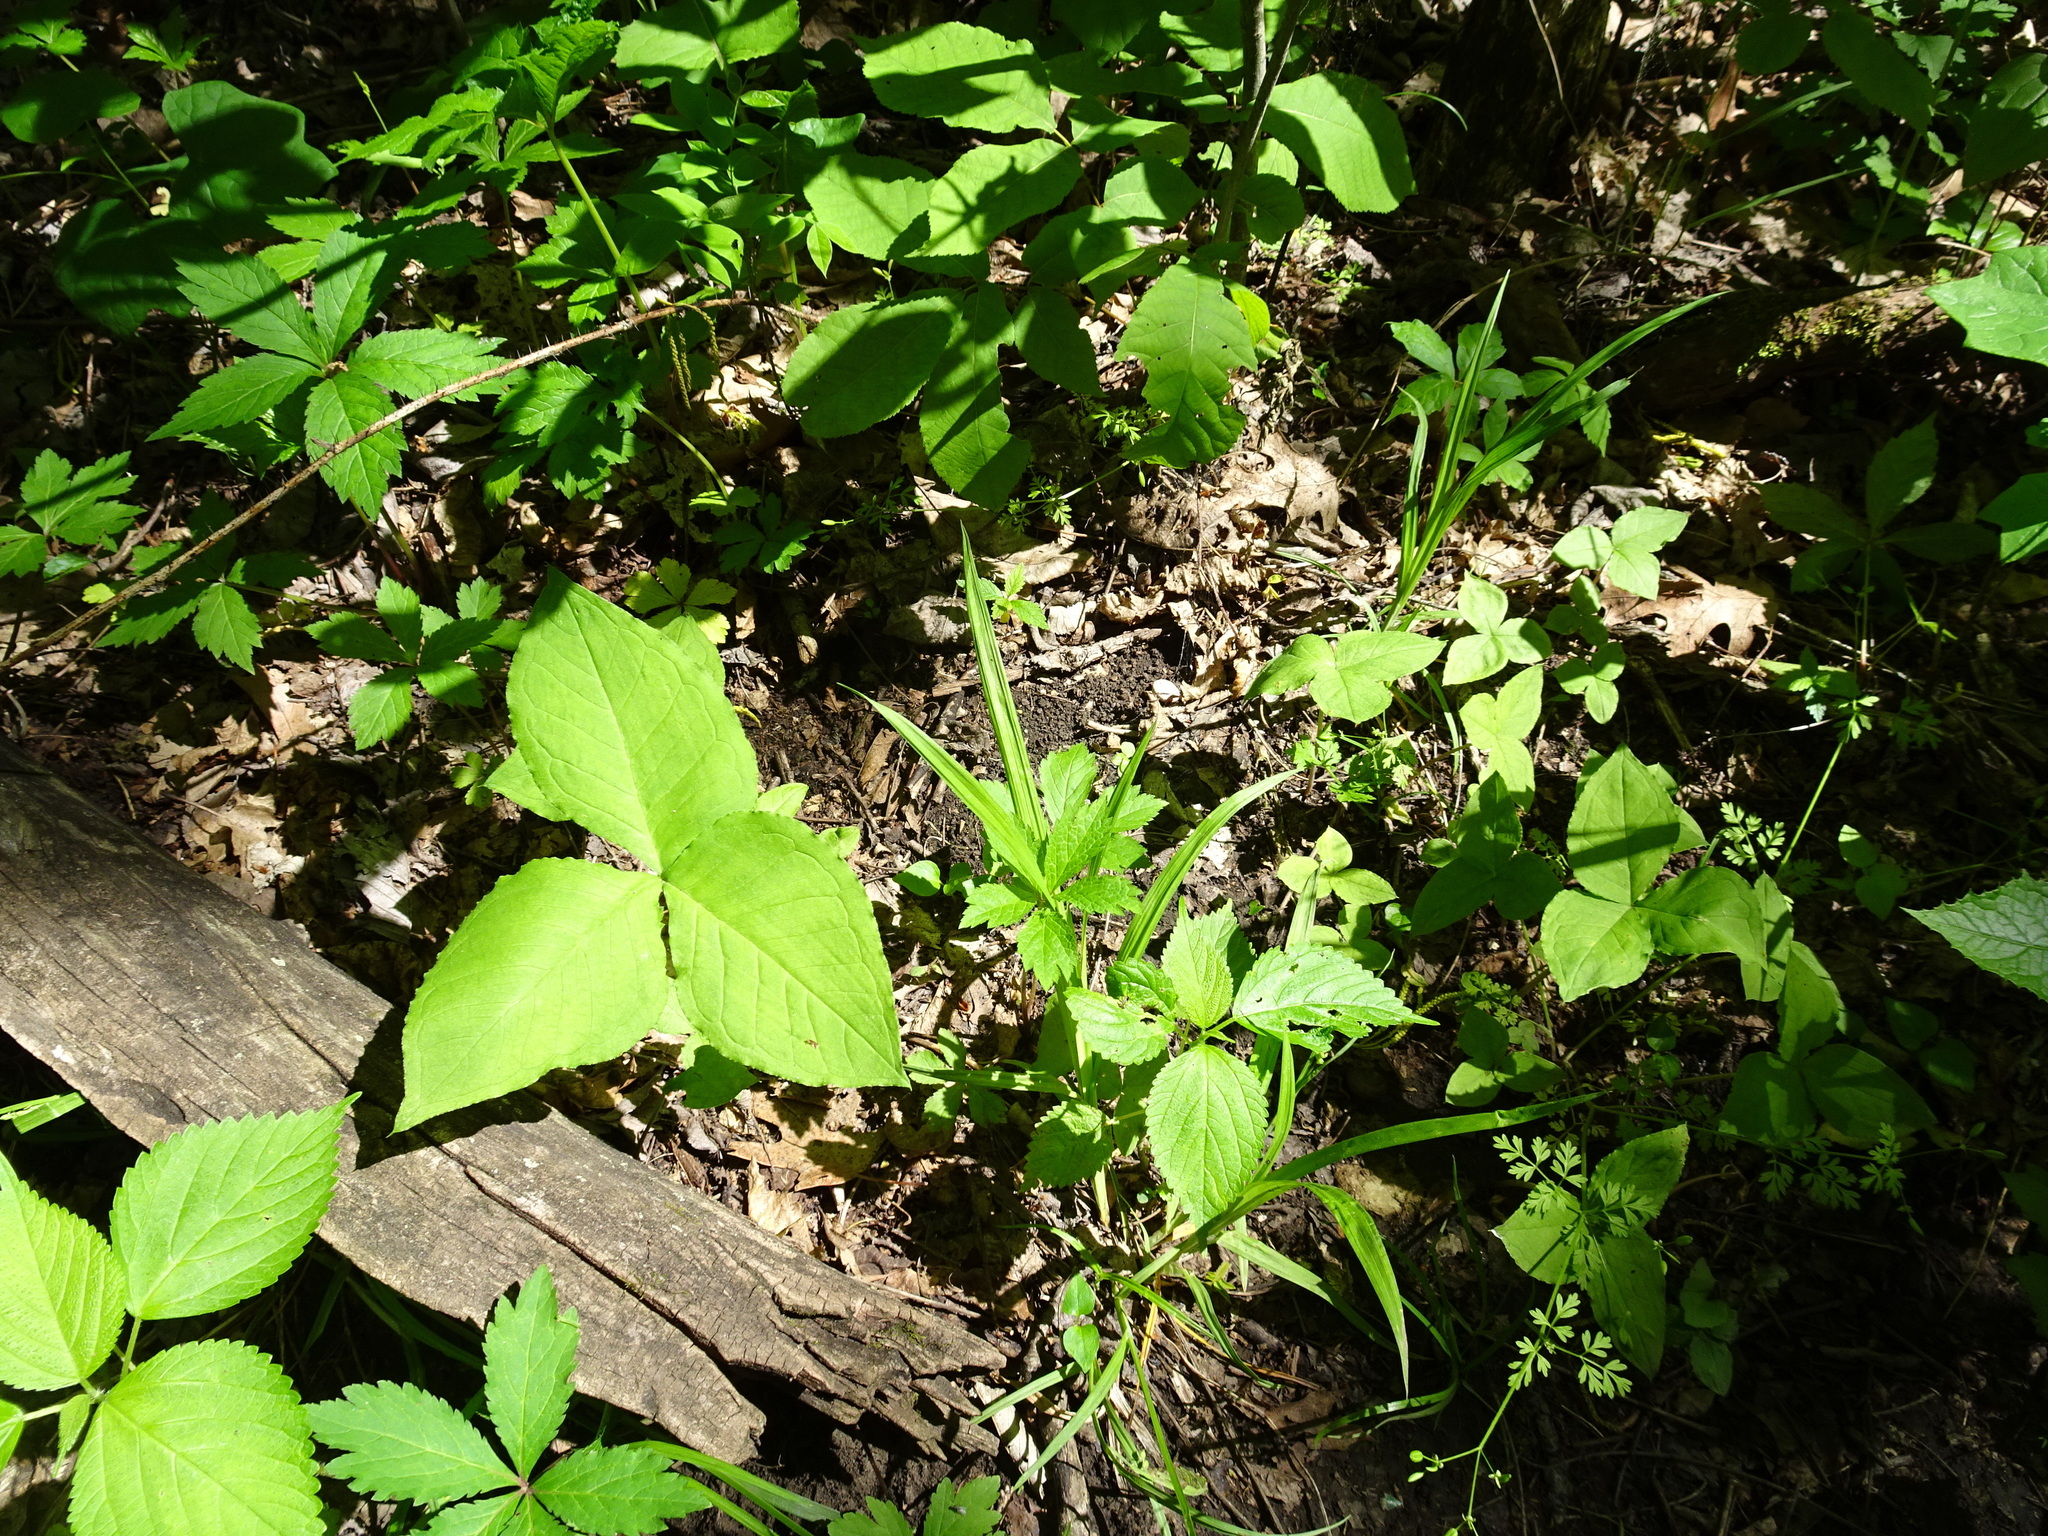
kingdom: Plantae
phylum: Tracheophyta
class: Liliopsida
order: Alismatales
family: Araceae
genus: Arisaema
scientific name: Arisaema triphyllum
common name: Jack-in-the-pulpit
